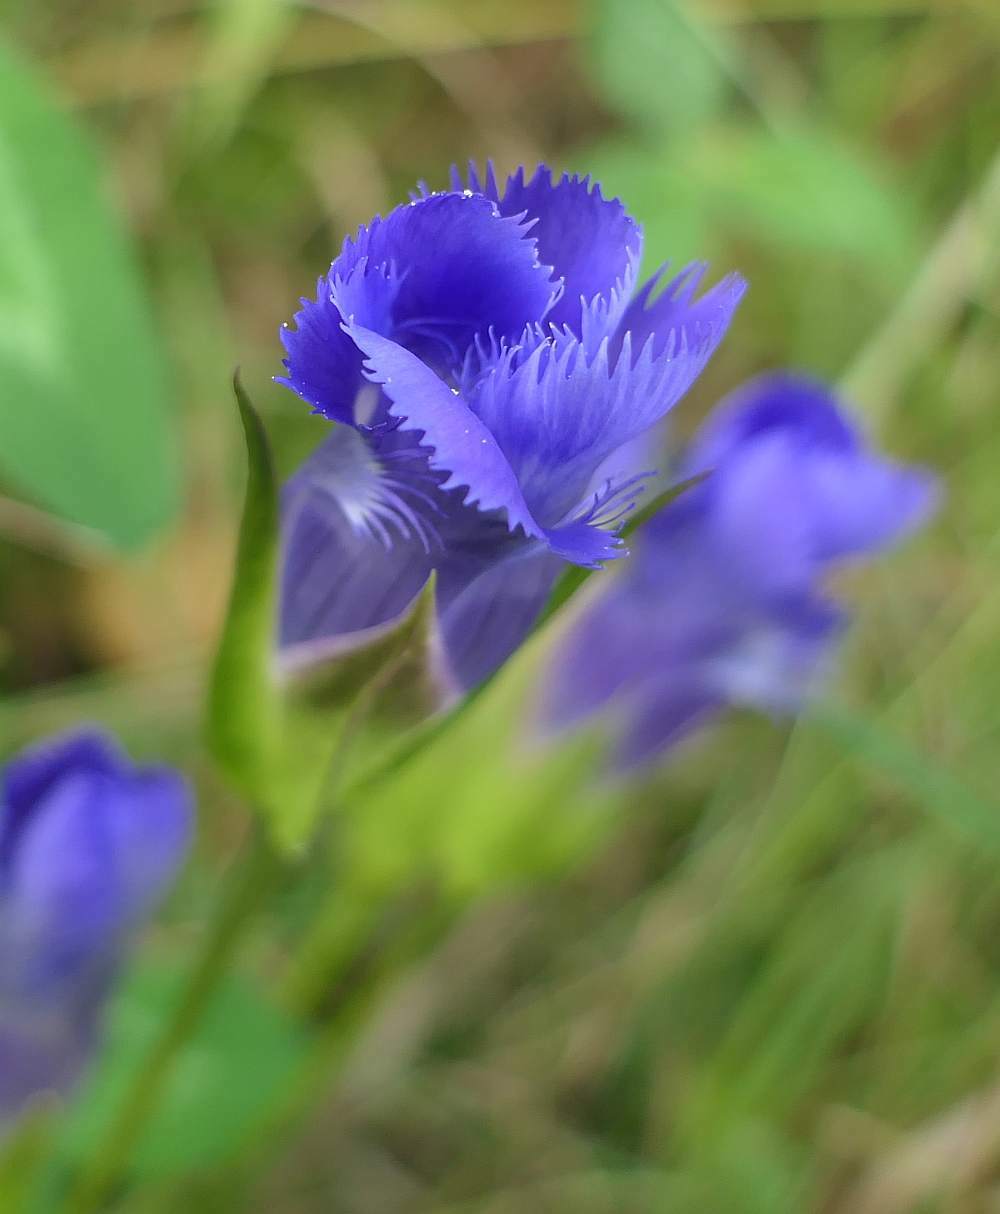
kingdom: Plantae
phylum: Tracheophyta
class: Magnoliopsida
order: Gentianales
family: Gentianaceae
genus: Gentianopsis
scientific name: Gentianopsis crinita
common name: Fringed-gentian
